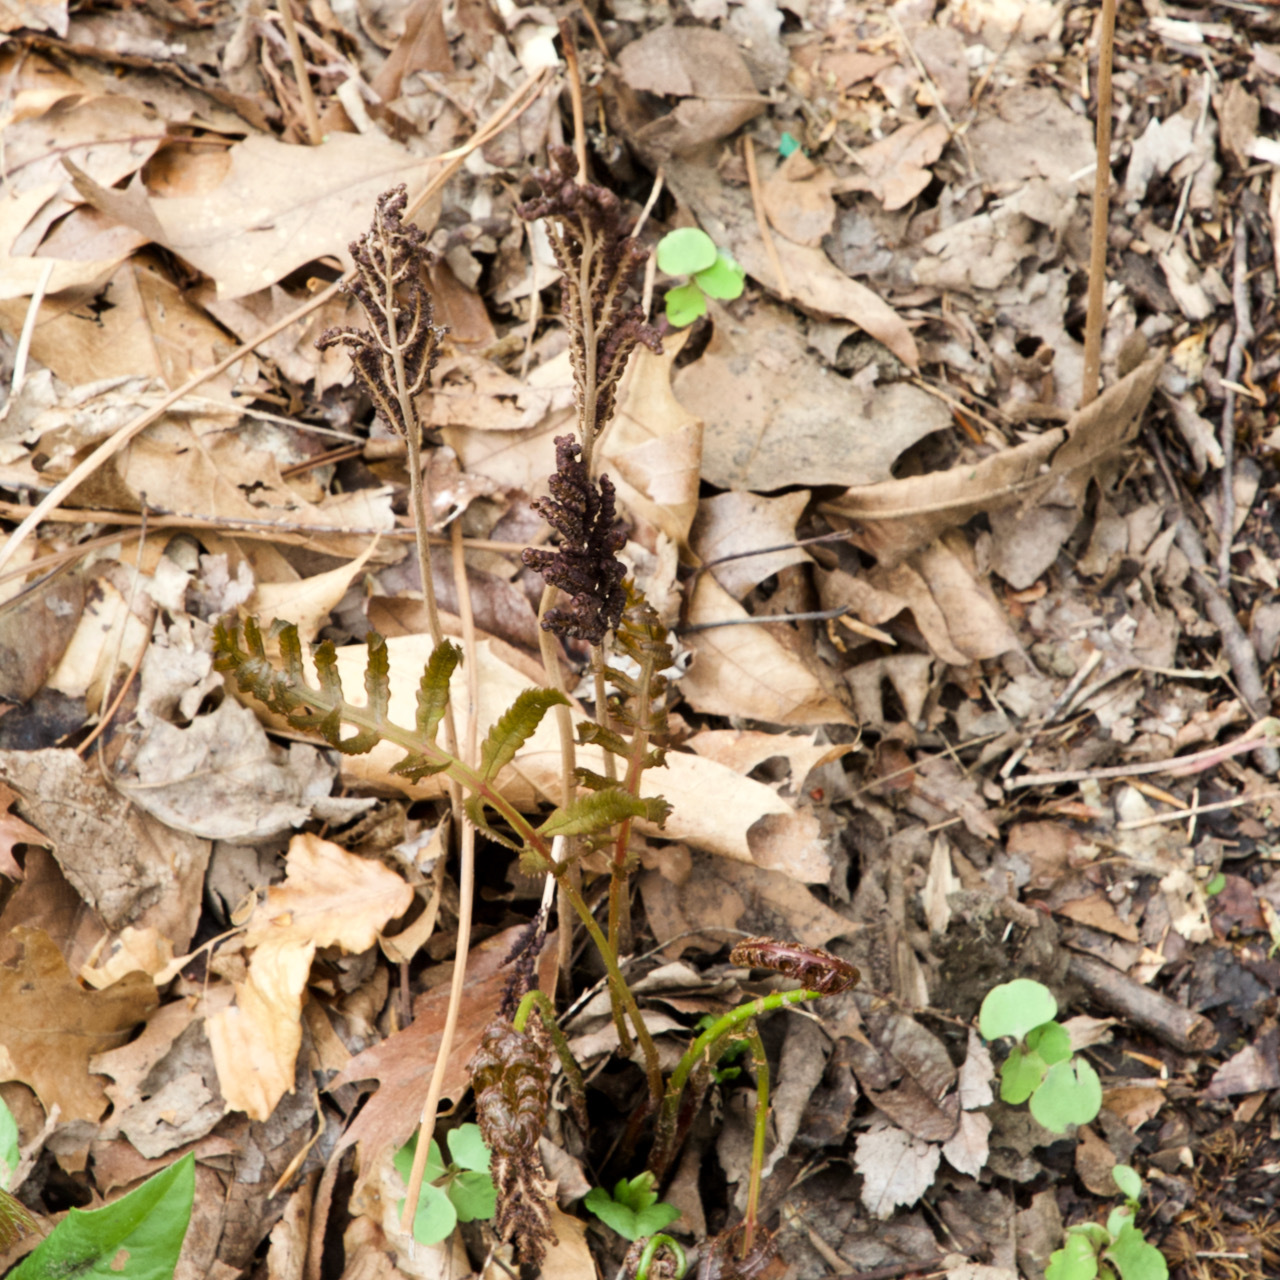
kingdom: Plantae
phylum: Tracheophyta
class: Polypodiopsida
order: Polypodiales
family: Onocleaceae
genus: Onoclea
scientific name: Onoclea sensibilis
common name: Sensitive fern
